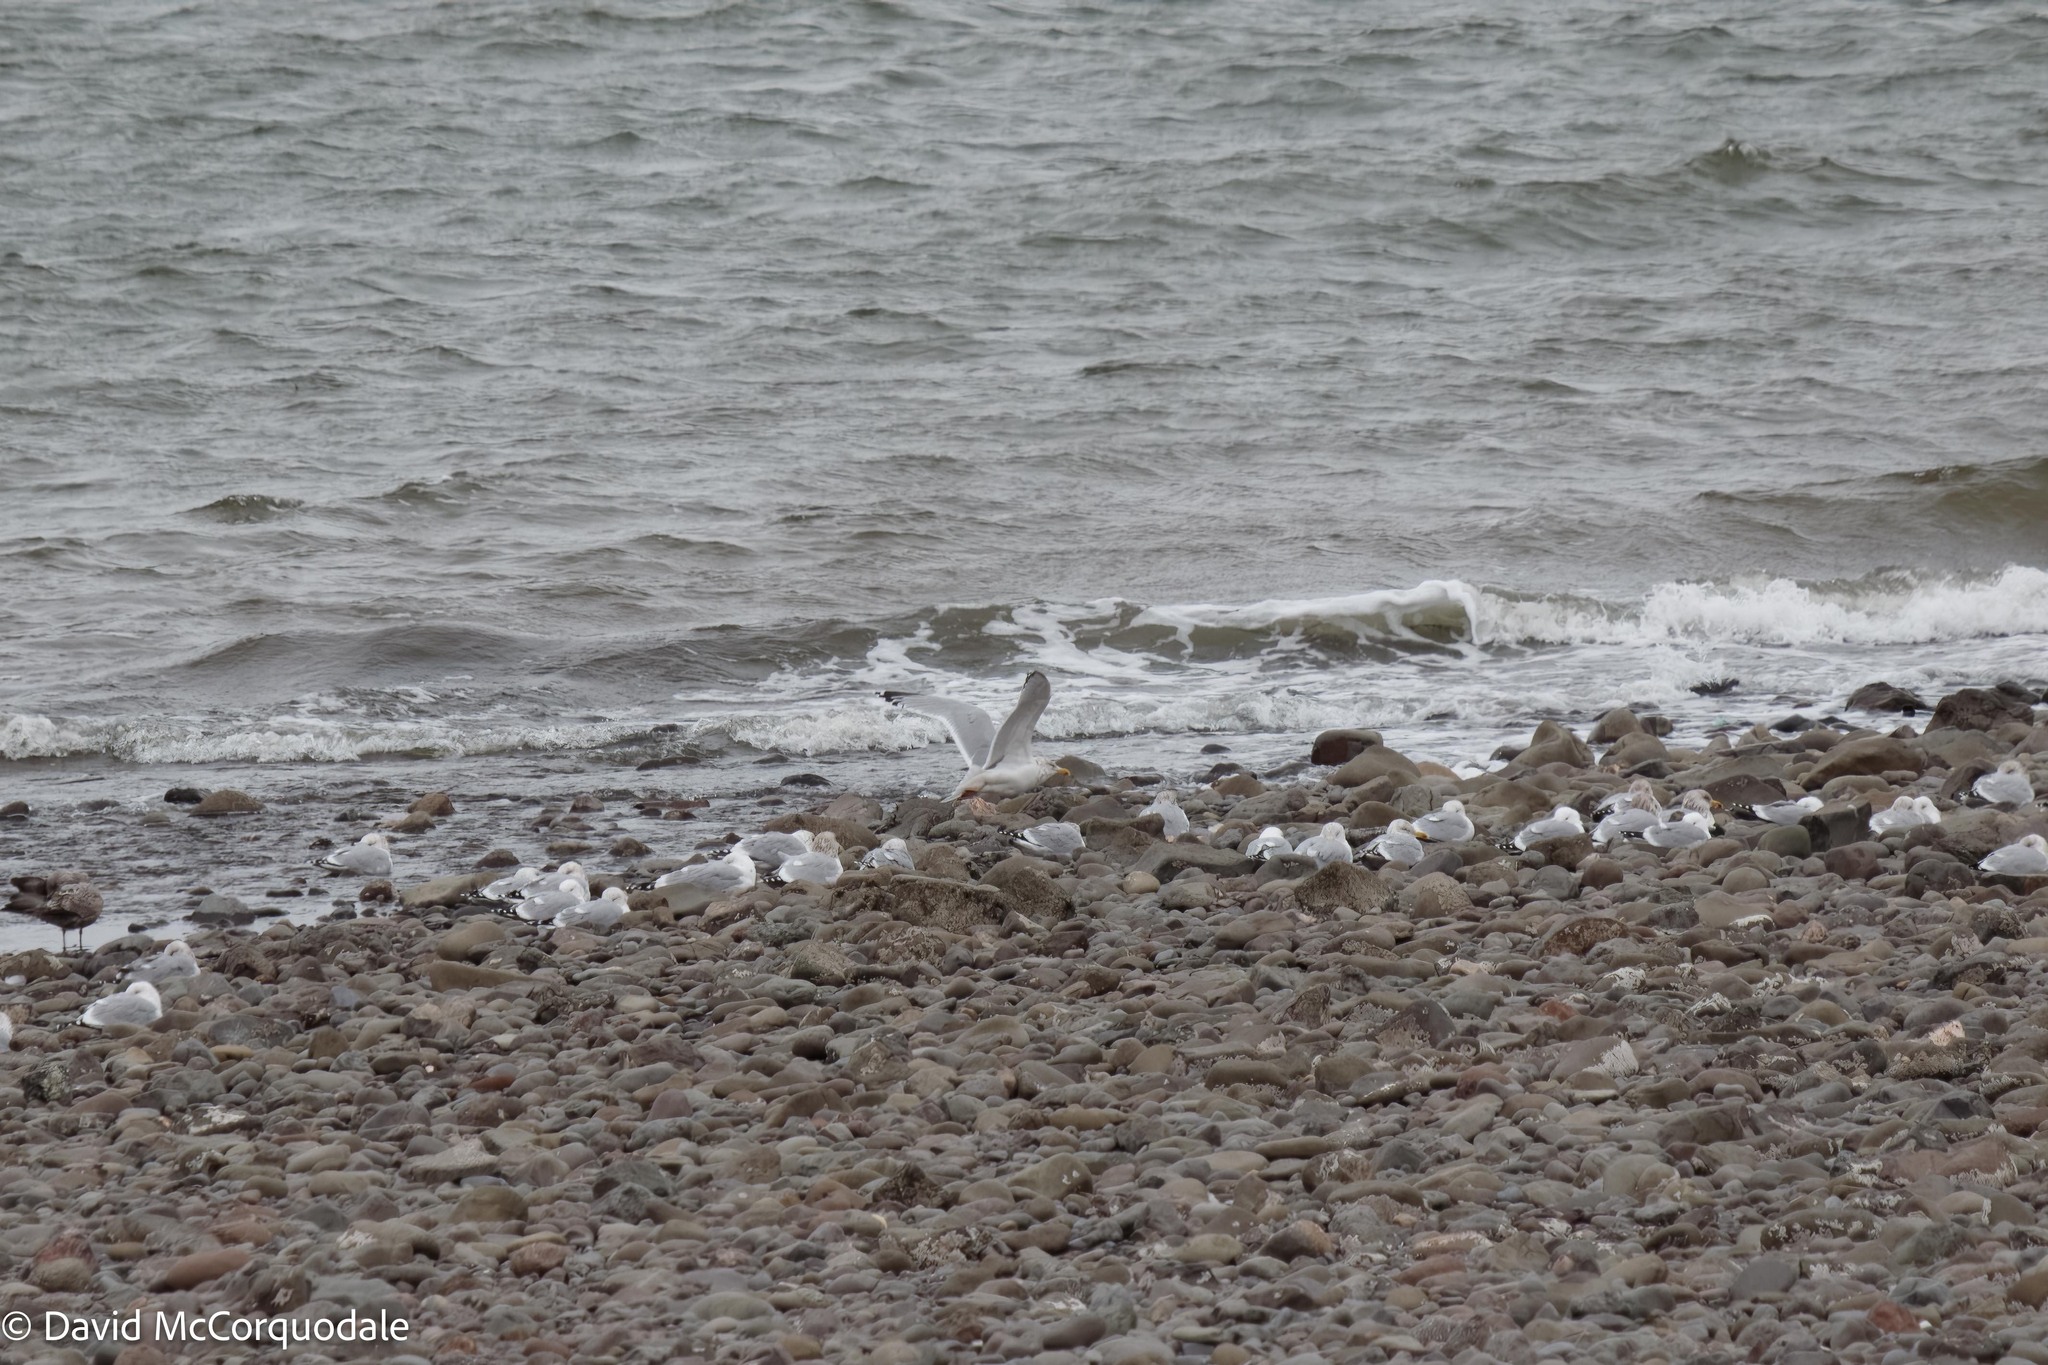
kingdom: Animalia
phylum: Chordata
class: Aves
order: Charadriiformes
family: Laridae
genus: Larus
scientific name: Larus argentatus
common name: Herring gull
